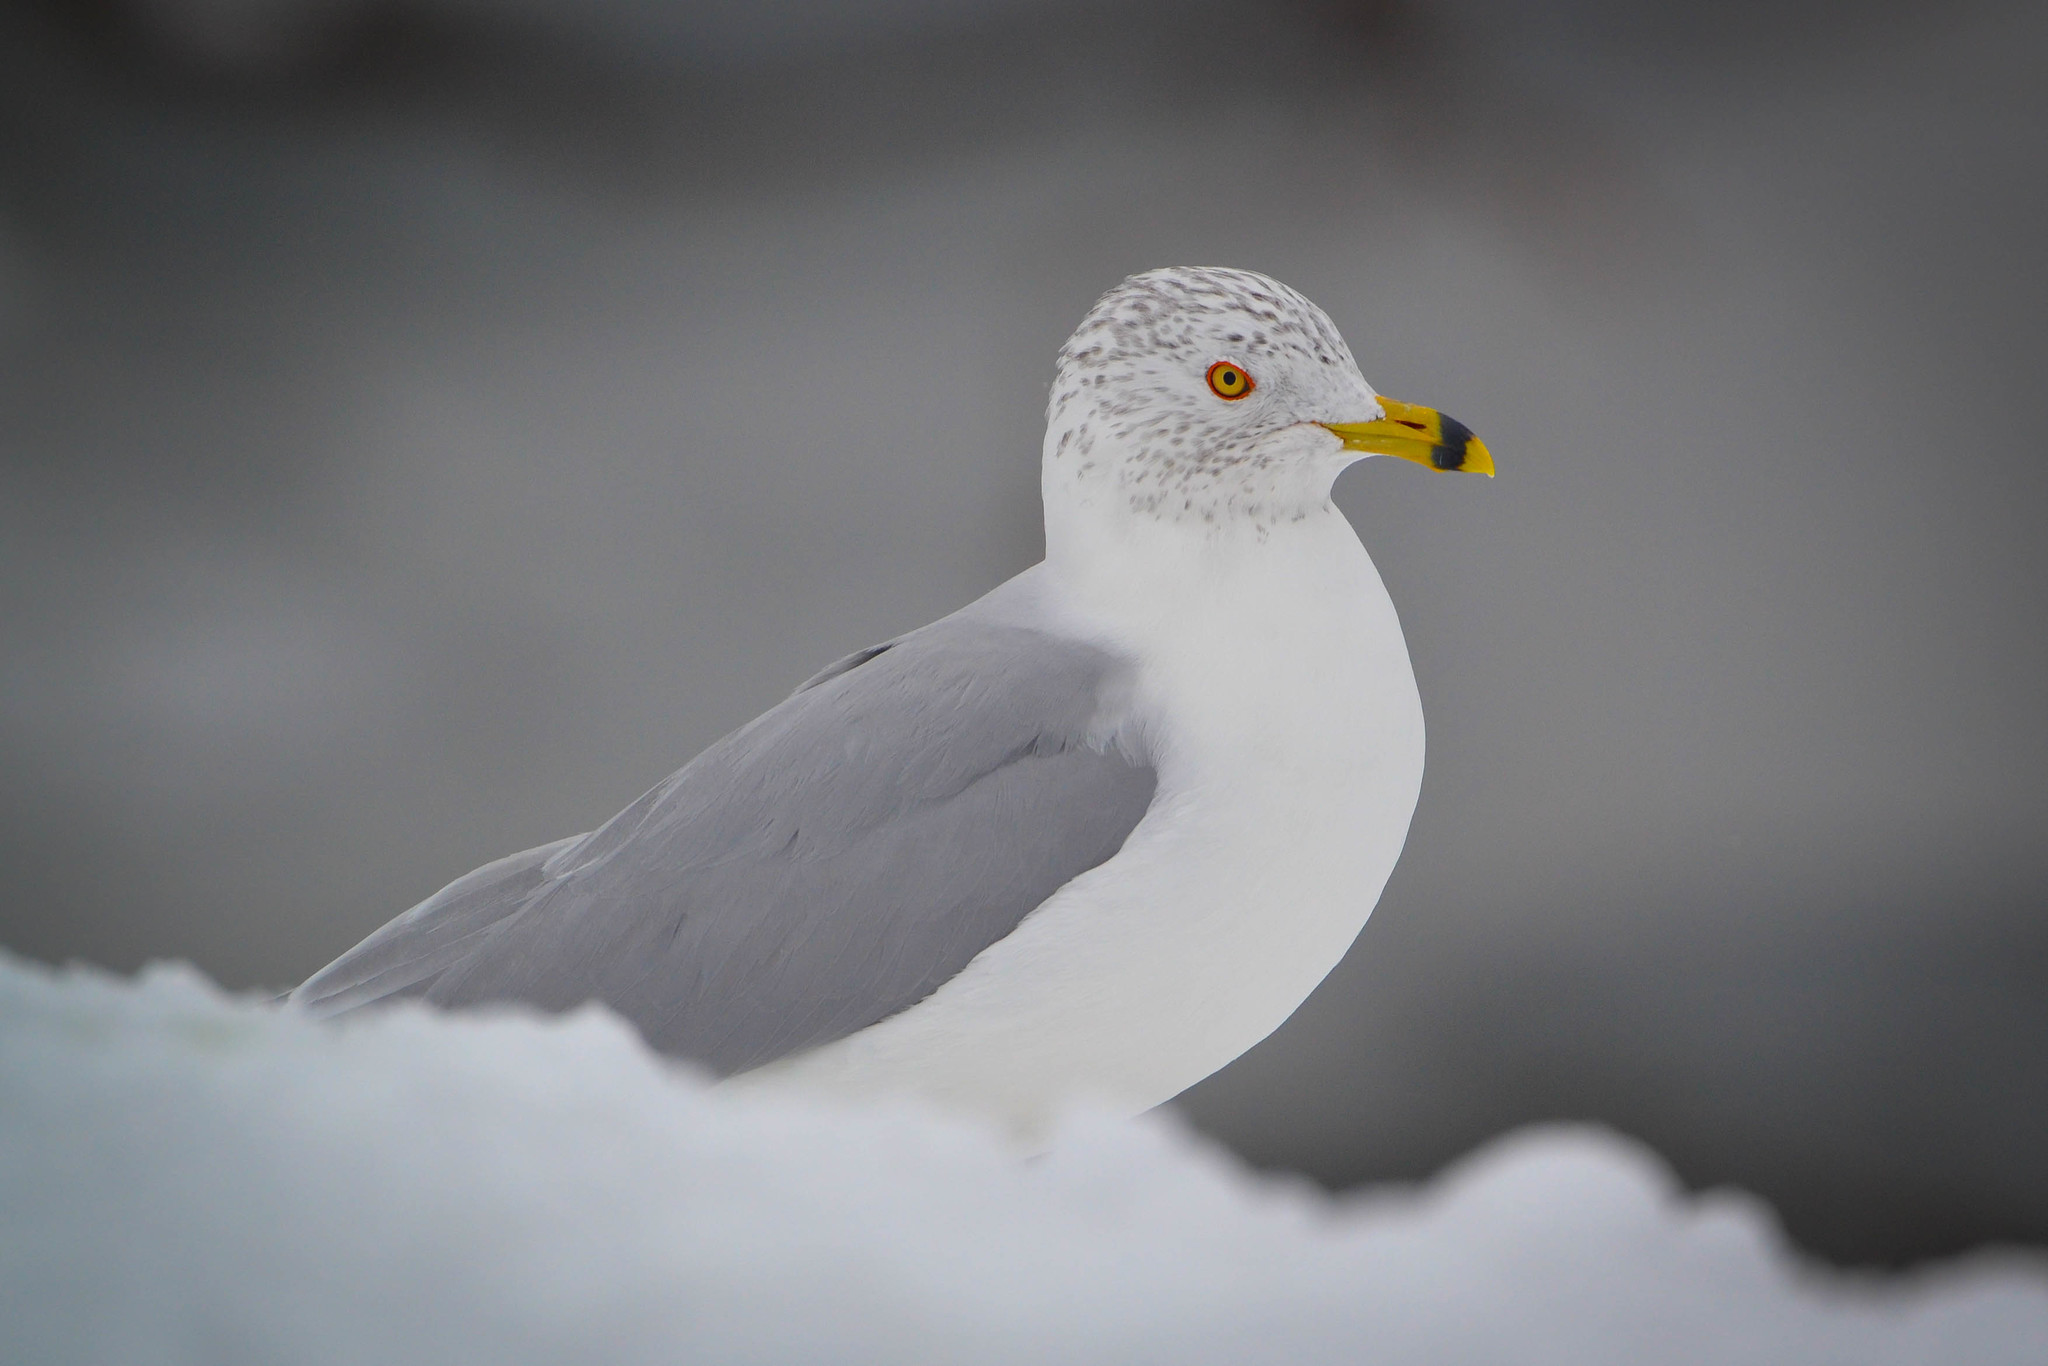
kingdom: Animalia
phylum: Chordata
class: Aves
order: Charadriiformes
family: Laridae
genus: Larus
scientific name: Larus delawarensis
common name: Ring-billed gull
